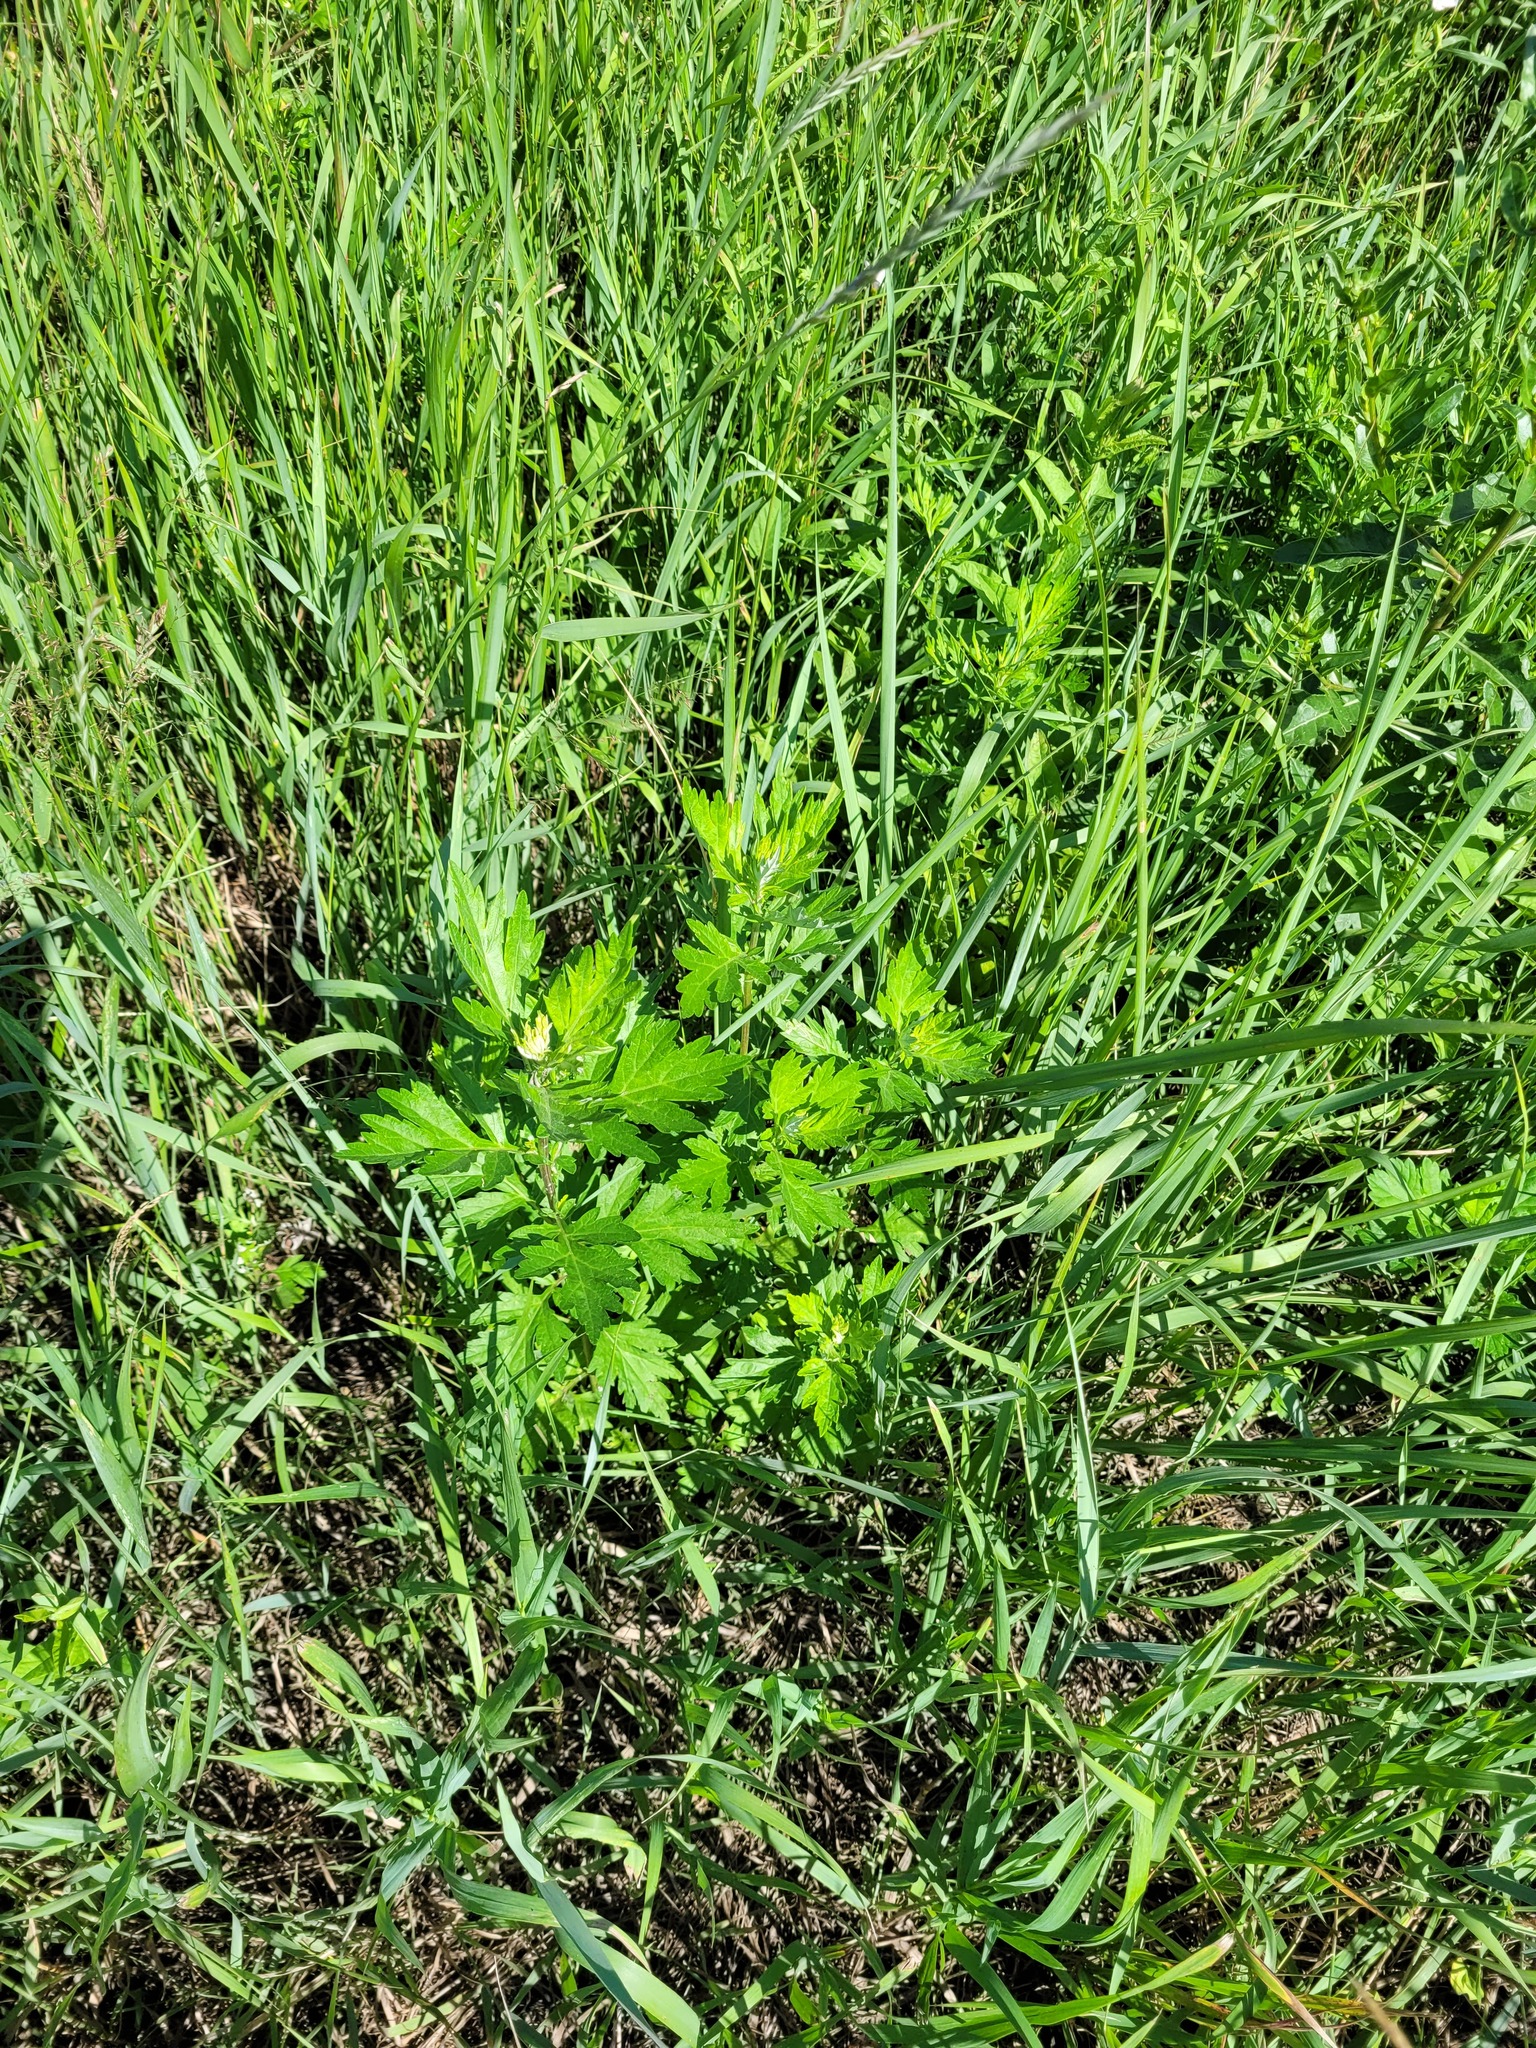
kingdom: Plantae
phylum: Tracheophyta
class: Magnoliopsida
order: Asterales
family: Asteraceae
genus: Artemisia
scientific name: Artemisia vulgaris
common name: Mugwort
